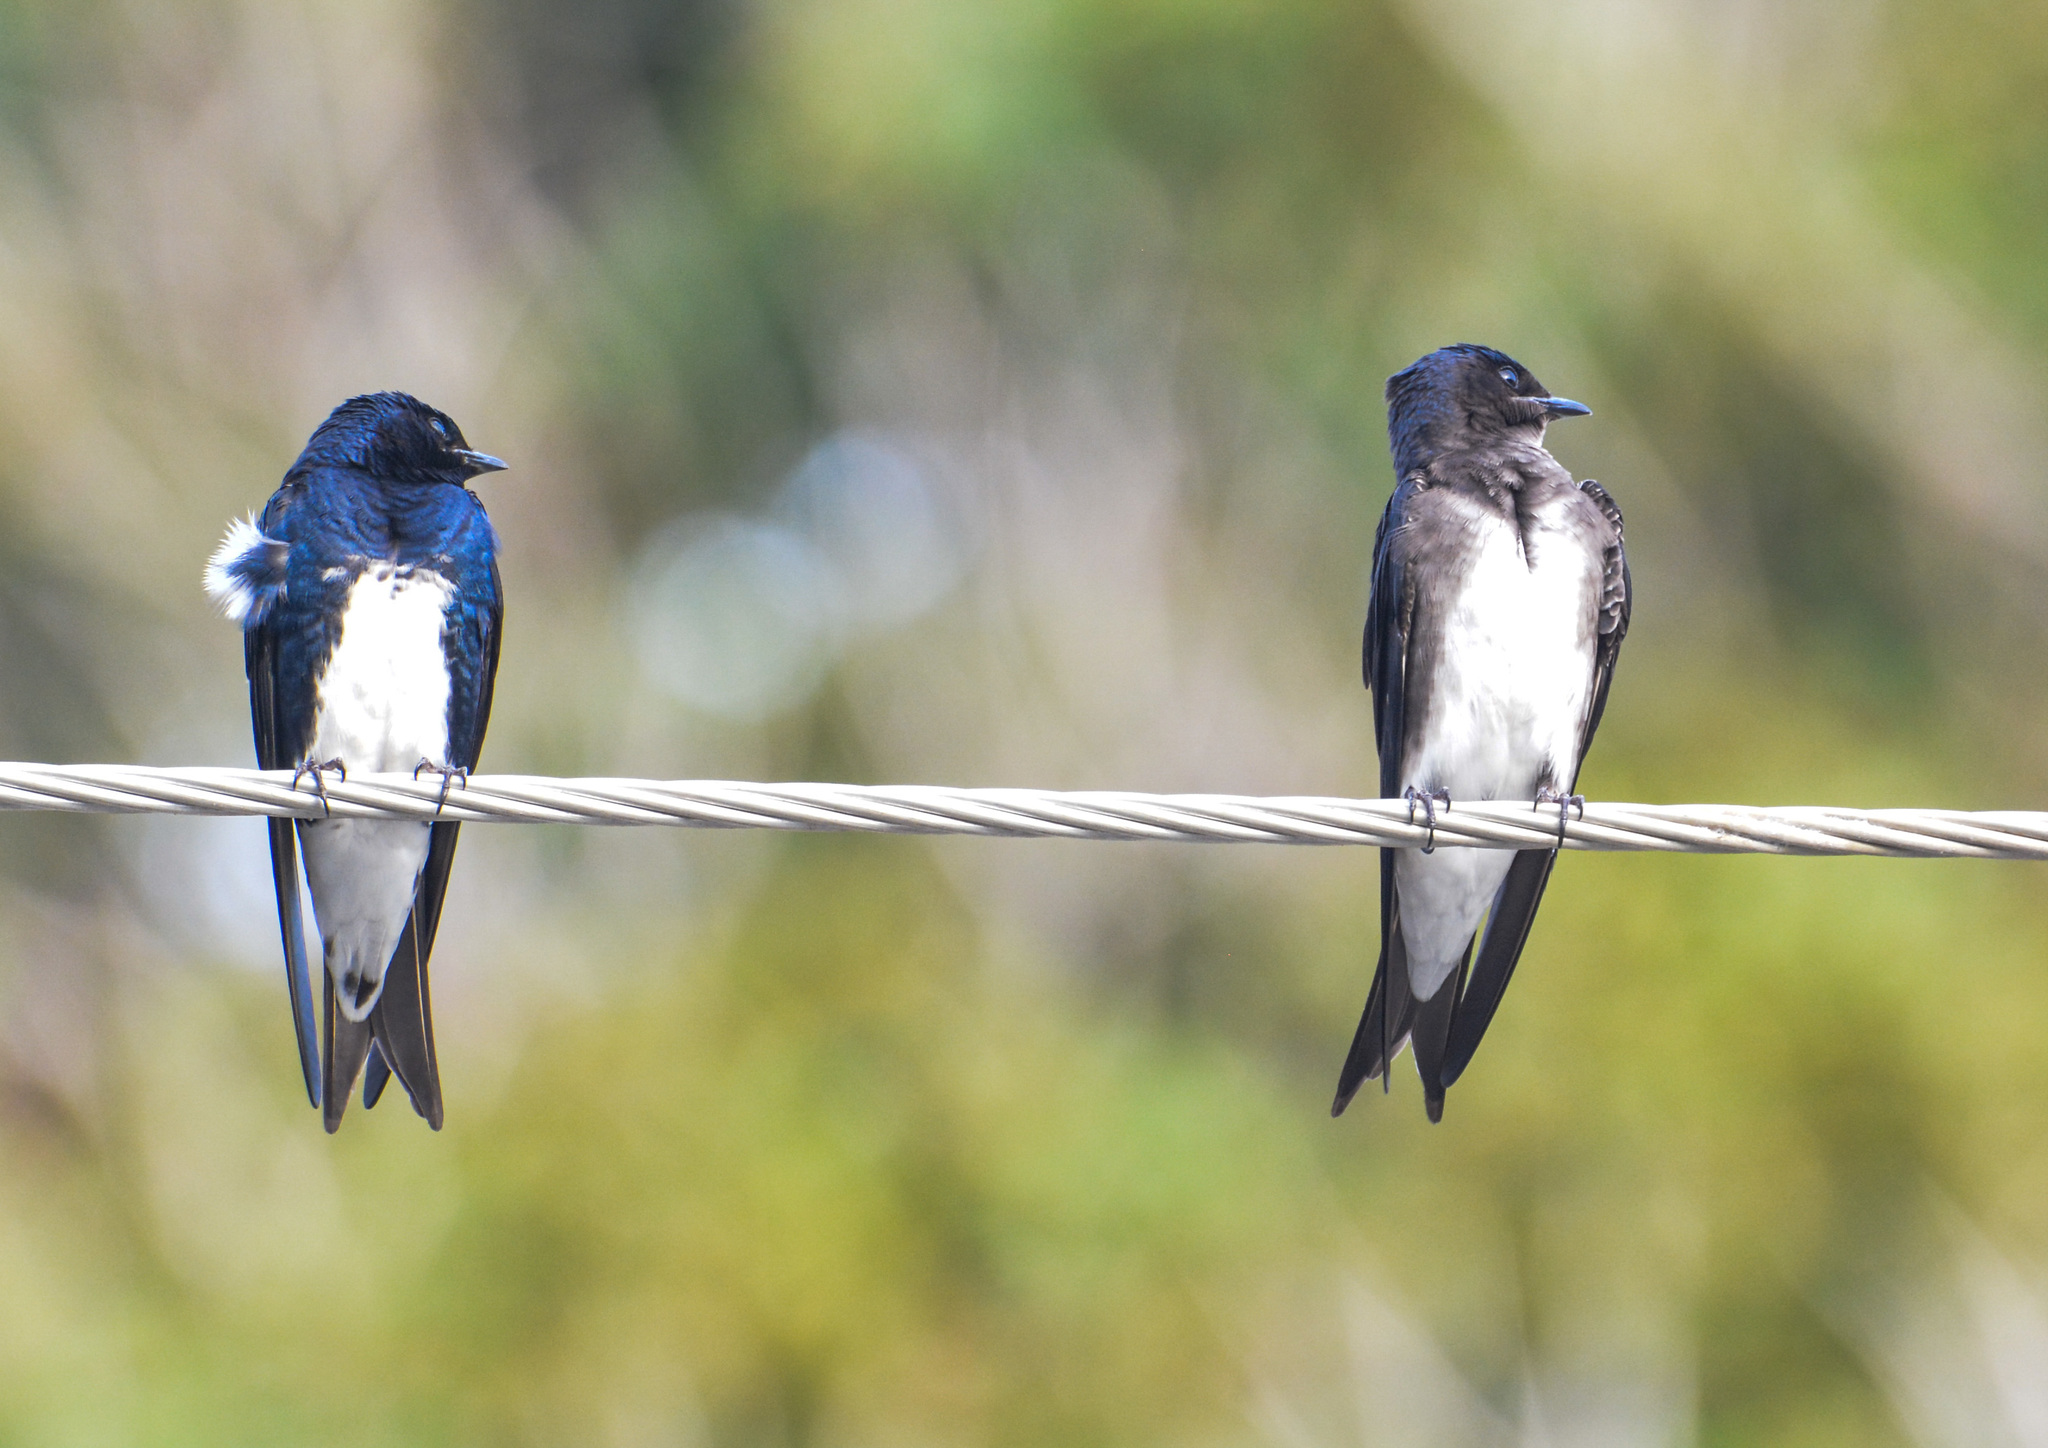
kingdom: Animalia
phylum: Chordata
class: Aves
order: Passeriformes
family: Hirundinidae
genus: Progne
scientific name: Progne dominicensis
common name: Caribbean martin
